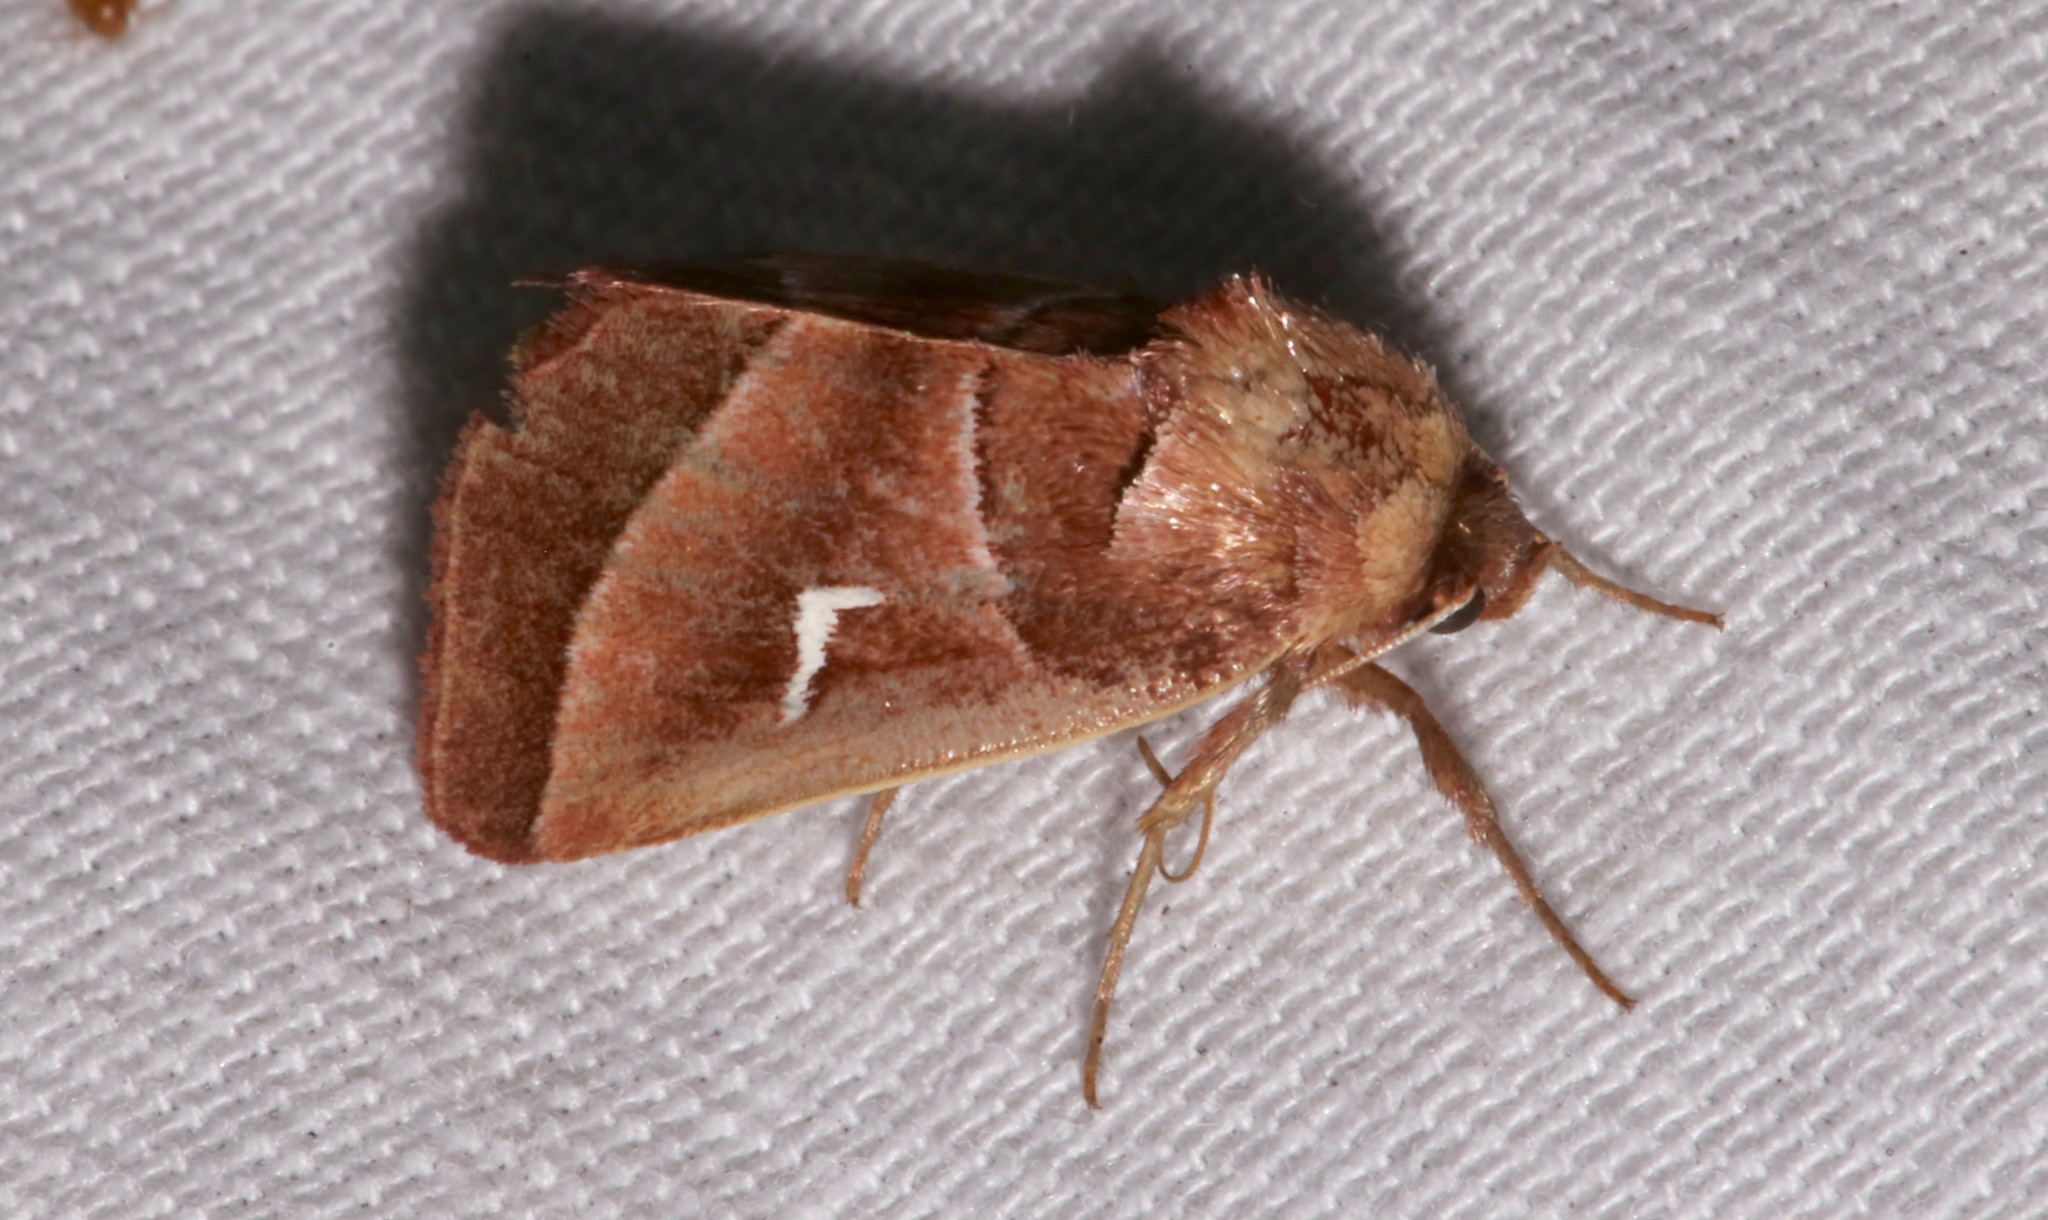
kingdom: Animalia
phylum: Arthropoda
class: Insecta
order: Lepidoptera
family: Noctuidae
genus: Fagitana
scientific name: Fagitana littera
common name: Marsh fern moth
